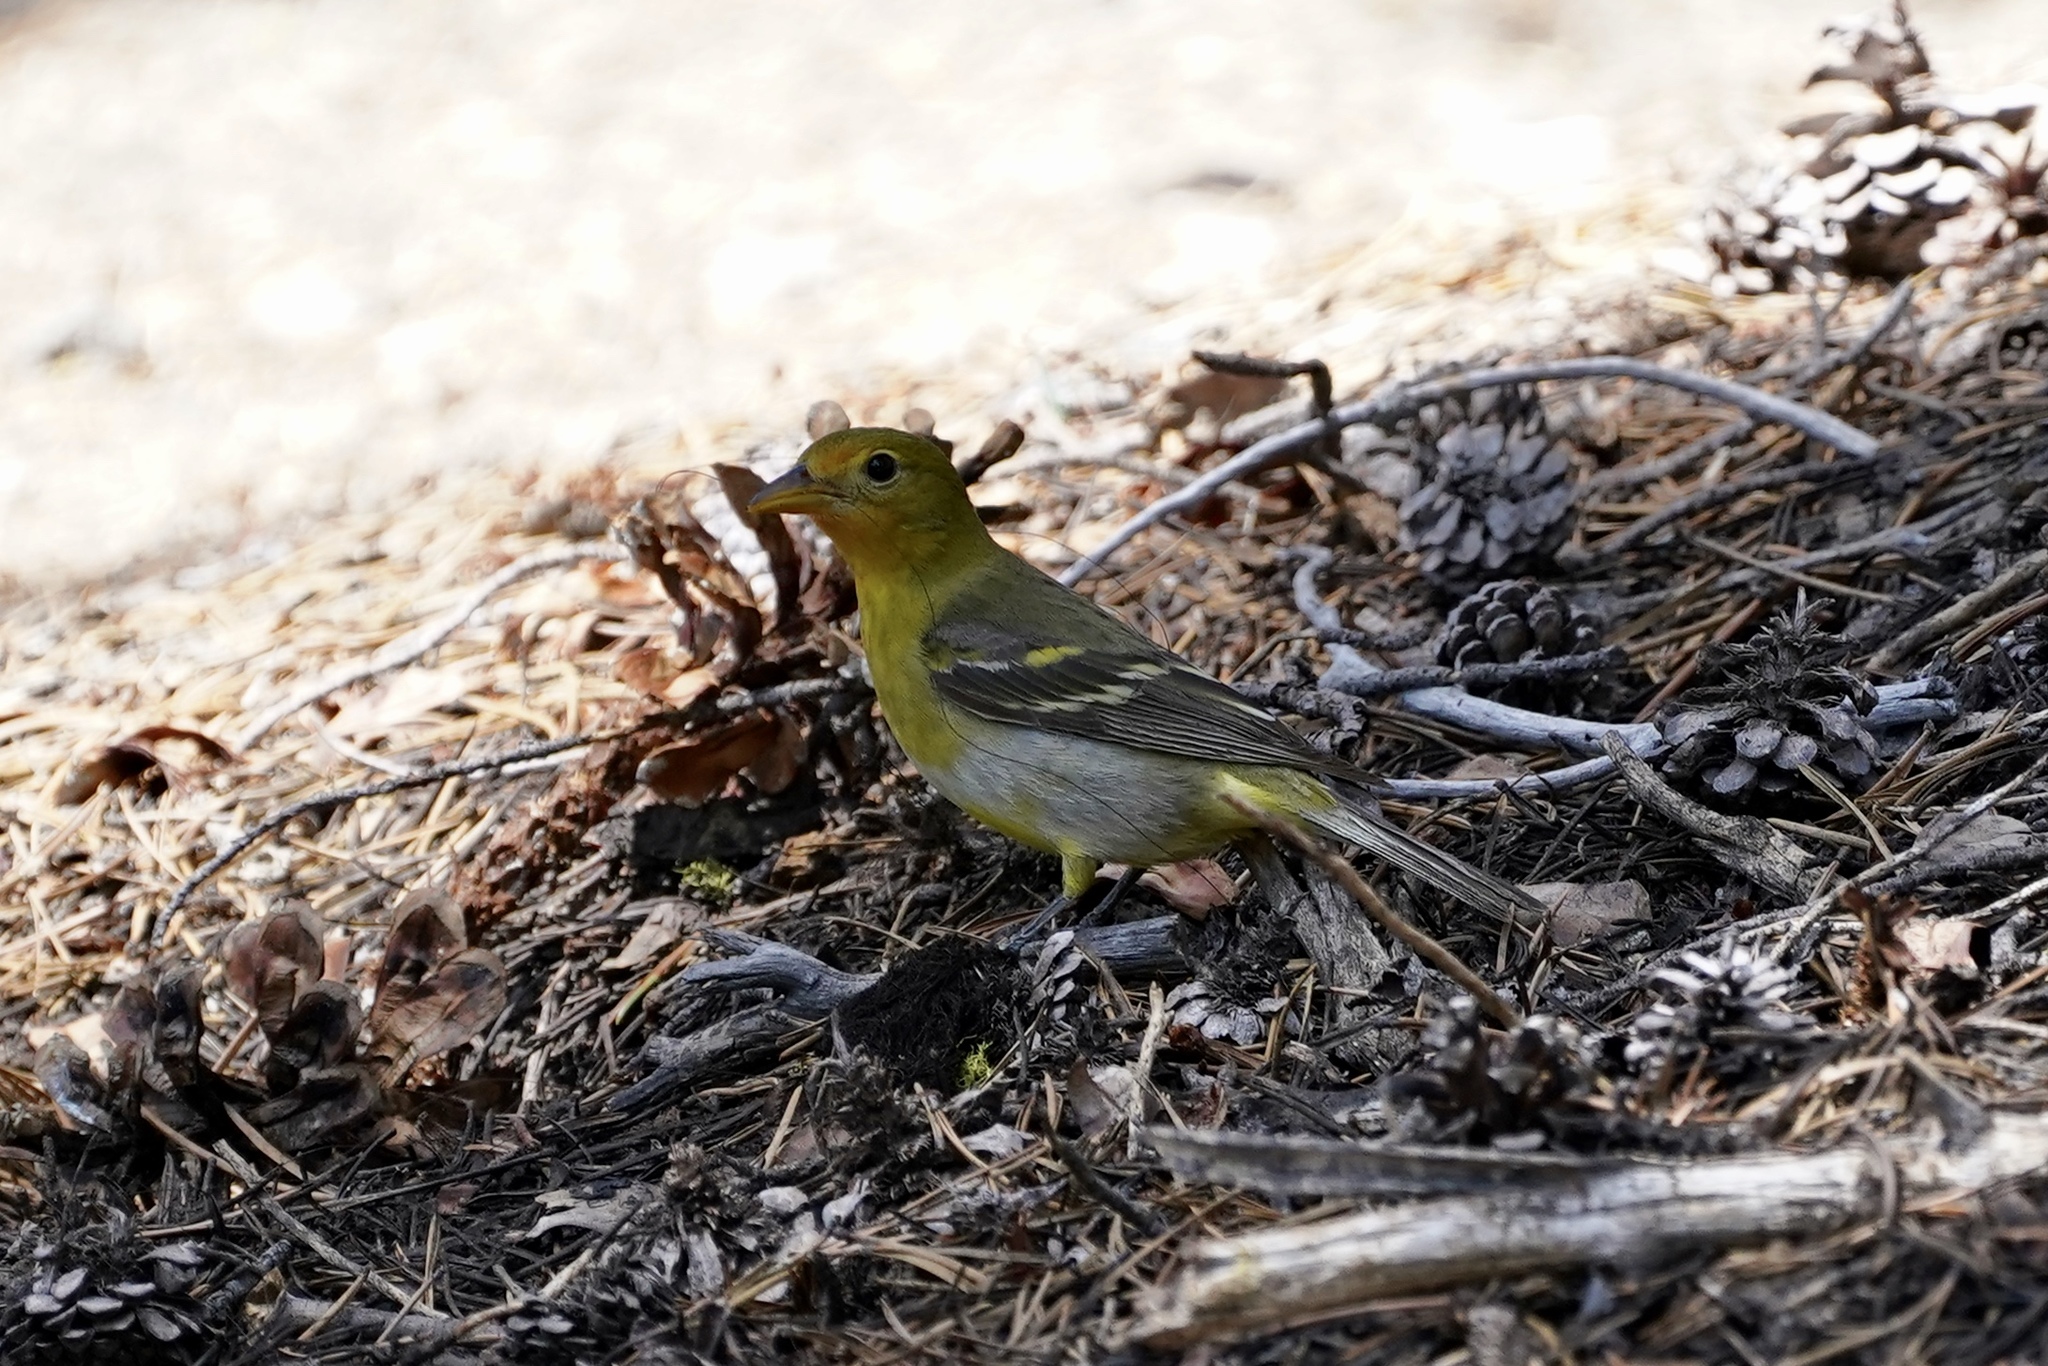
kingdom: Animalia
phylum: Chordata
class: Aves
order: Passeriformes
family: Cardinalidae
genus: Piranga
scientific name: Piranga ludoviciana
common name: Western tanager
